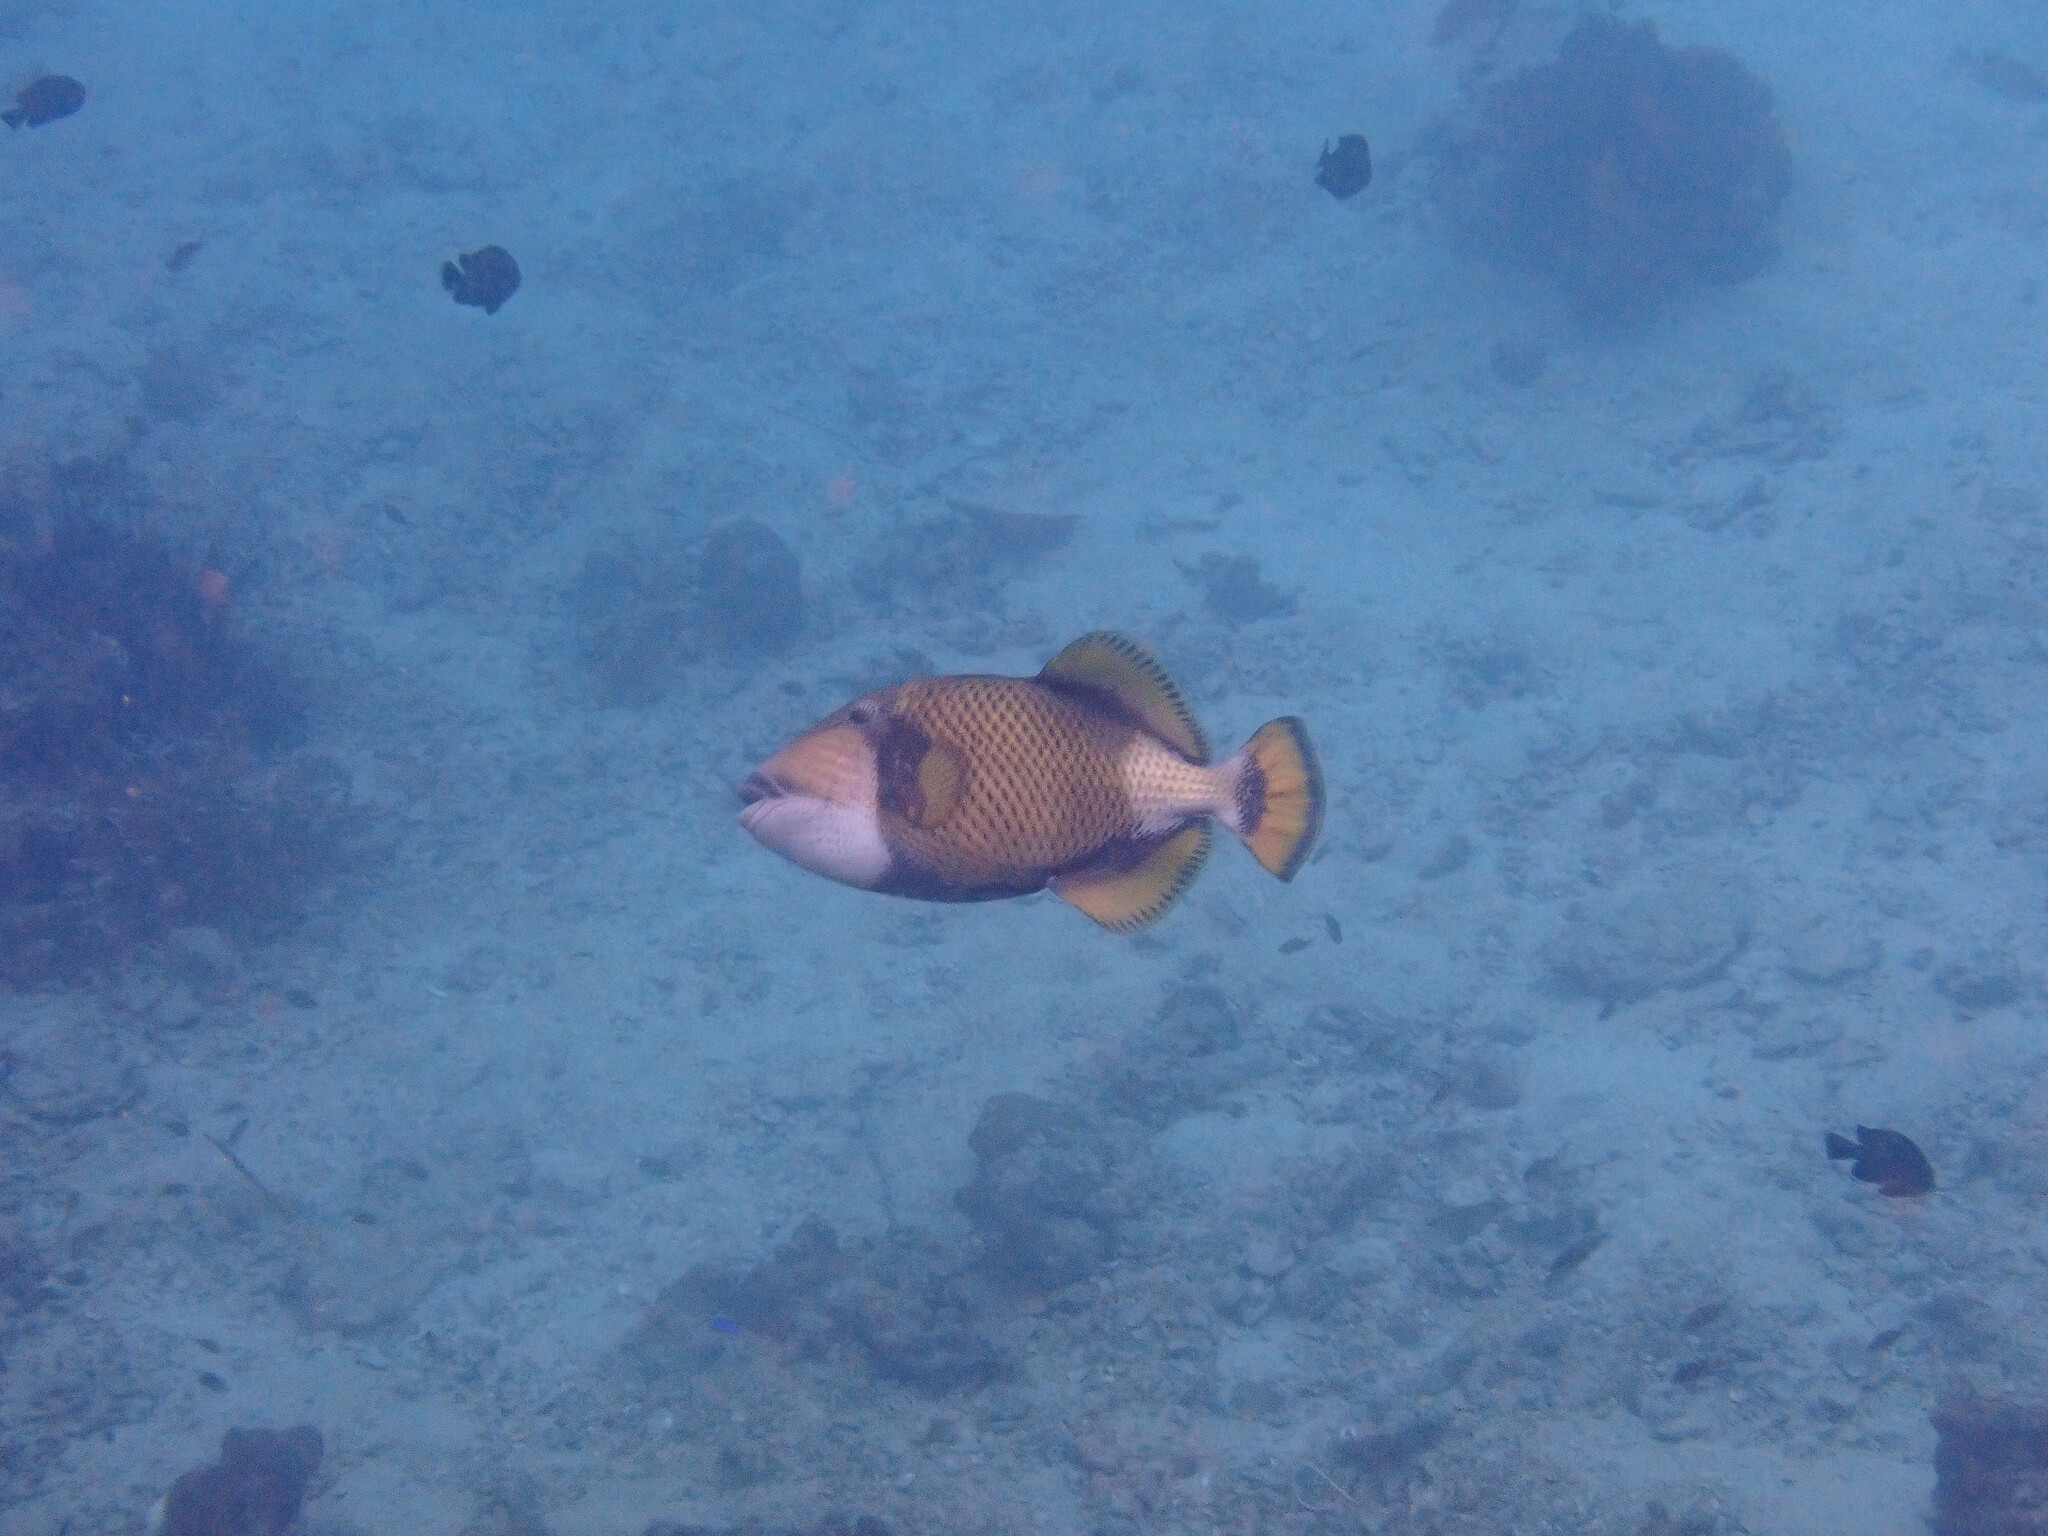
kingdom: Animalia
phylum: Chordata
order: Tetraodontiformes
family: Balistidae
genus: Balistoides
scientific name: Balistoides viridescens
